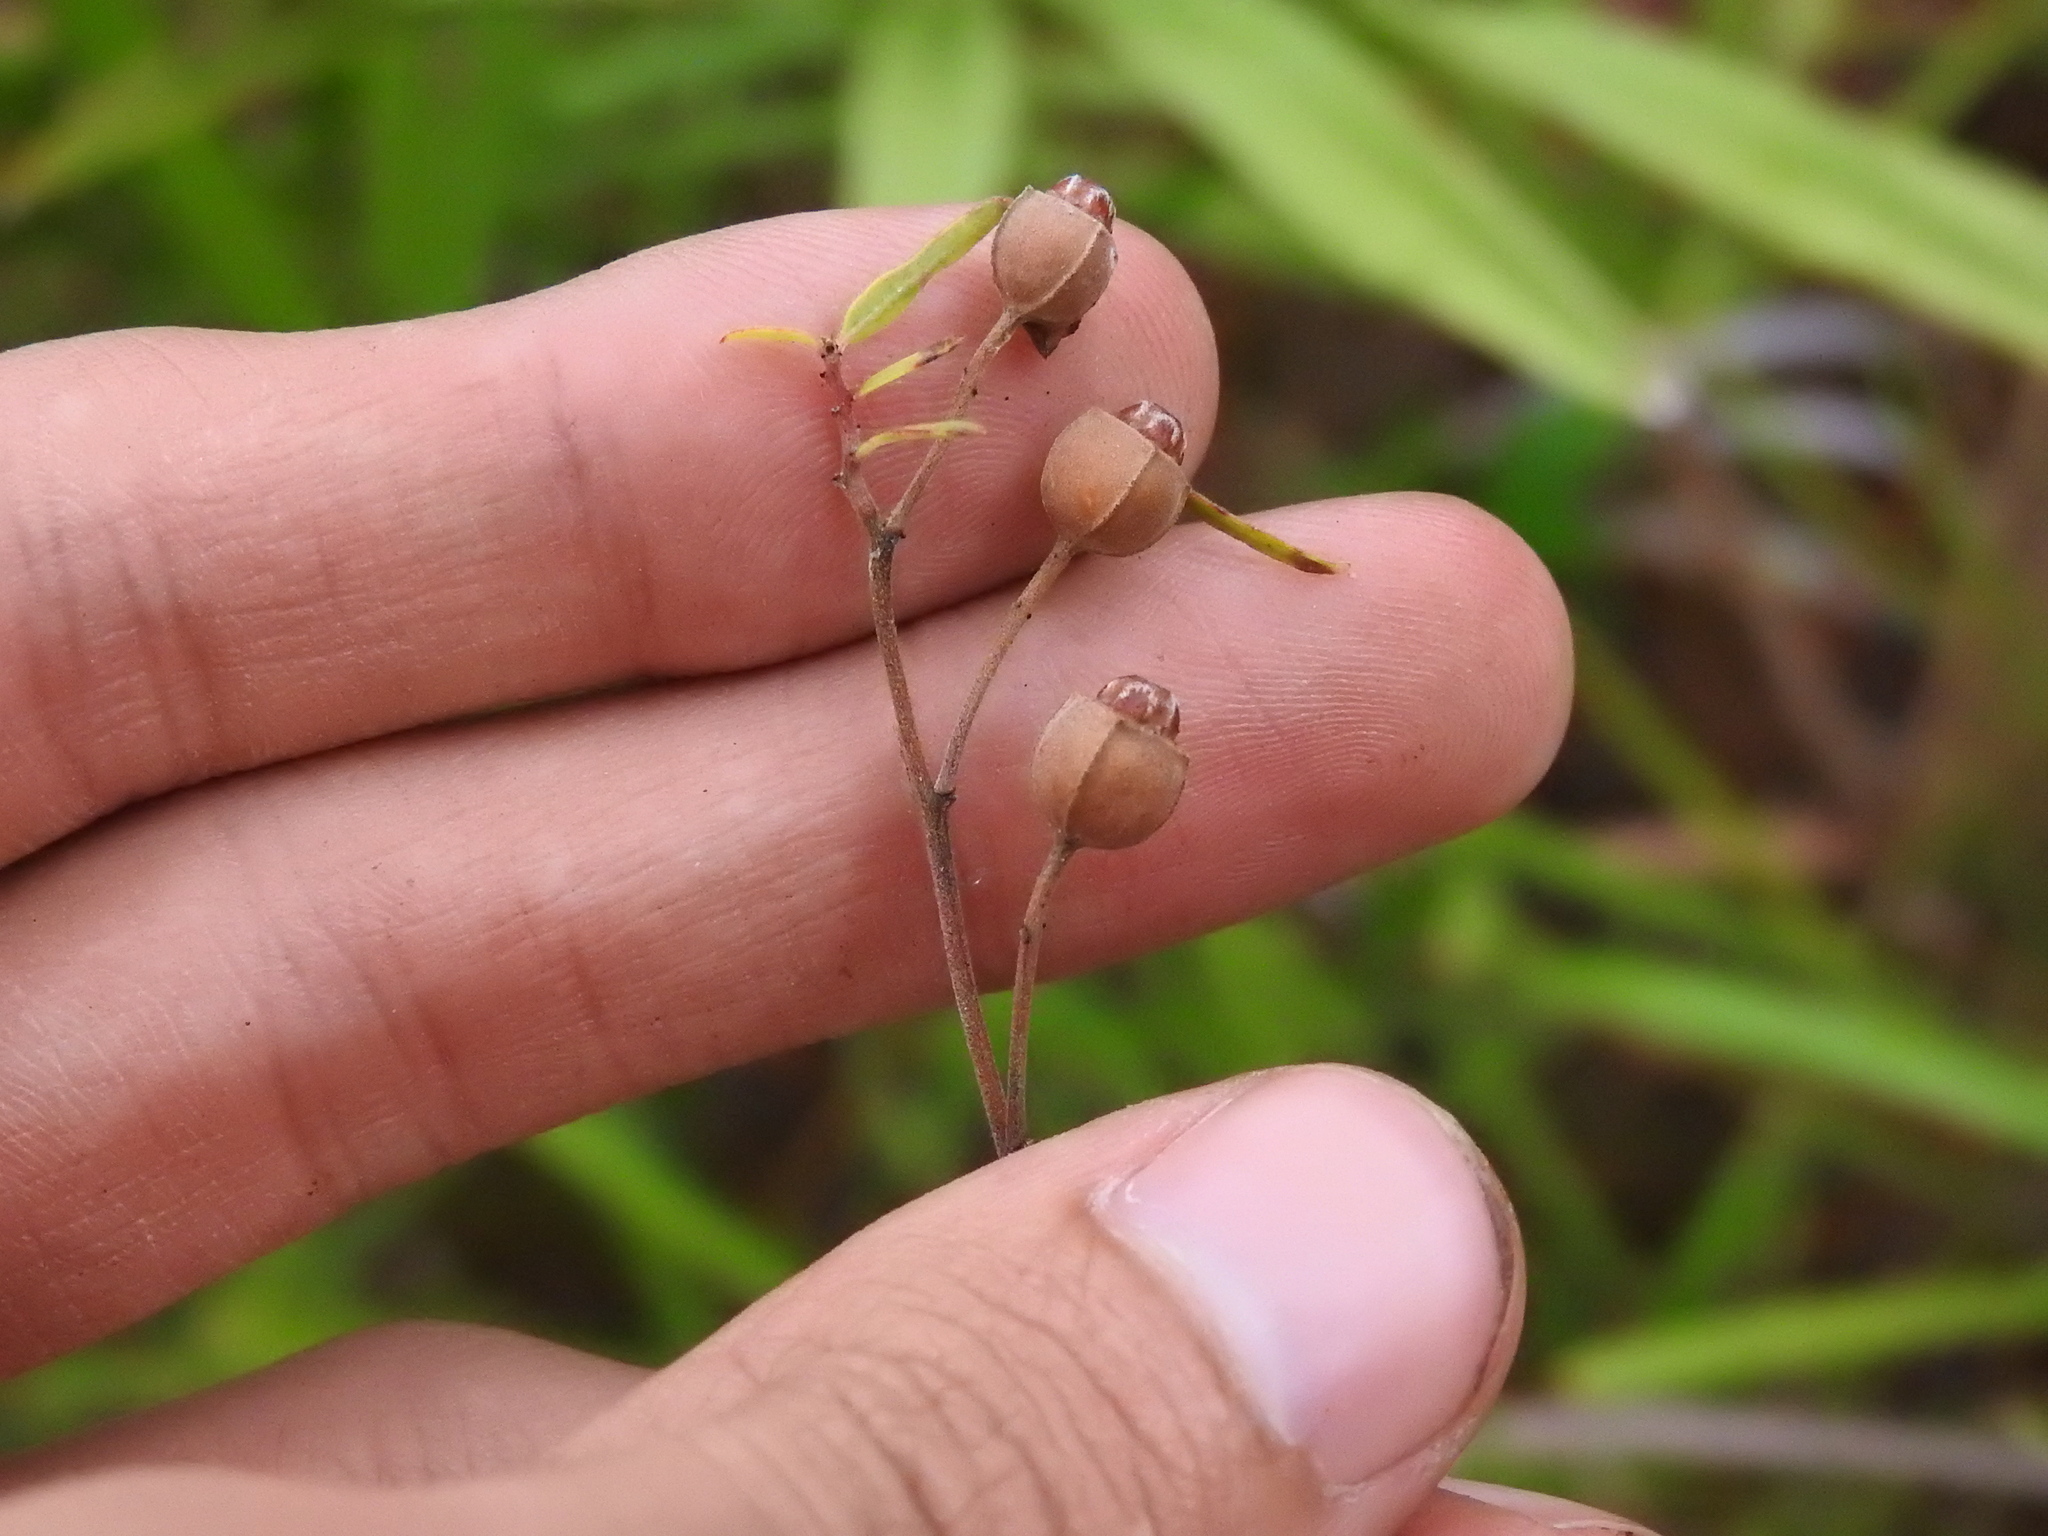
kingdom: Plantae
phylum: Tracheophyta
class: Magnoliopsida
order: Myrtales
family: Onagraceae
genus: Ludwigia
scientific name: Ludwigia maritima
